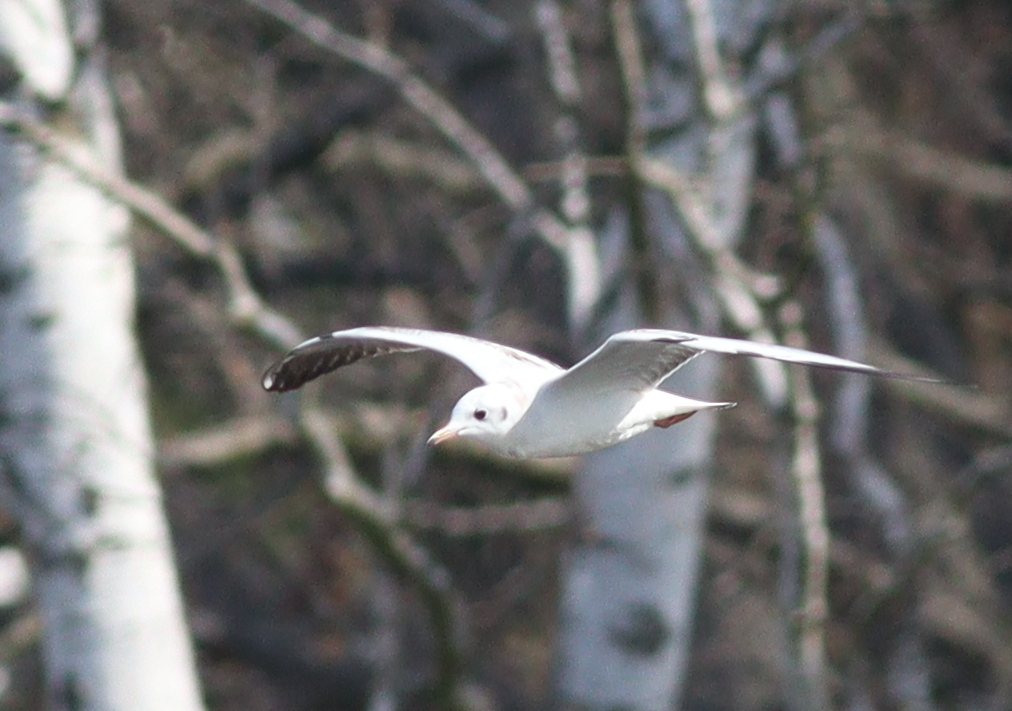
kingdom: Animalia
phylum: Chordata
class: Aves
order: Charadriiformes
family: Laridae
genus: Chroicocephalus
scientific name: Chroicocephalus ridibundus
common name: Black-headed gull
